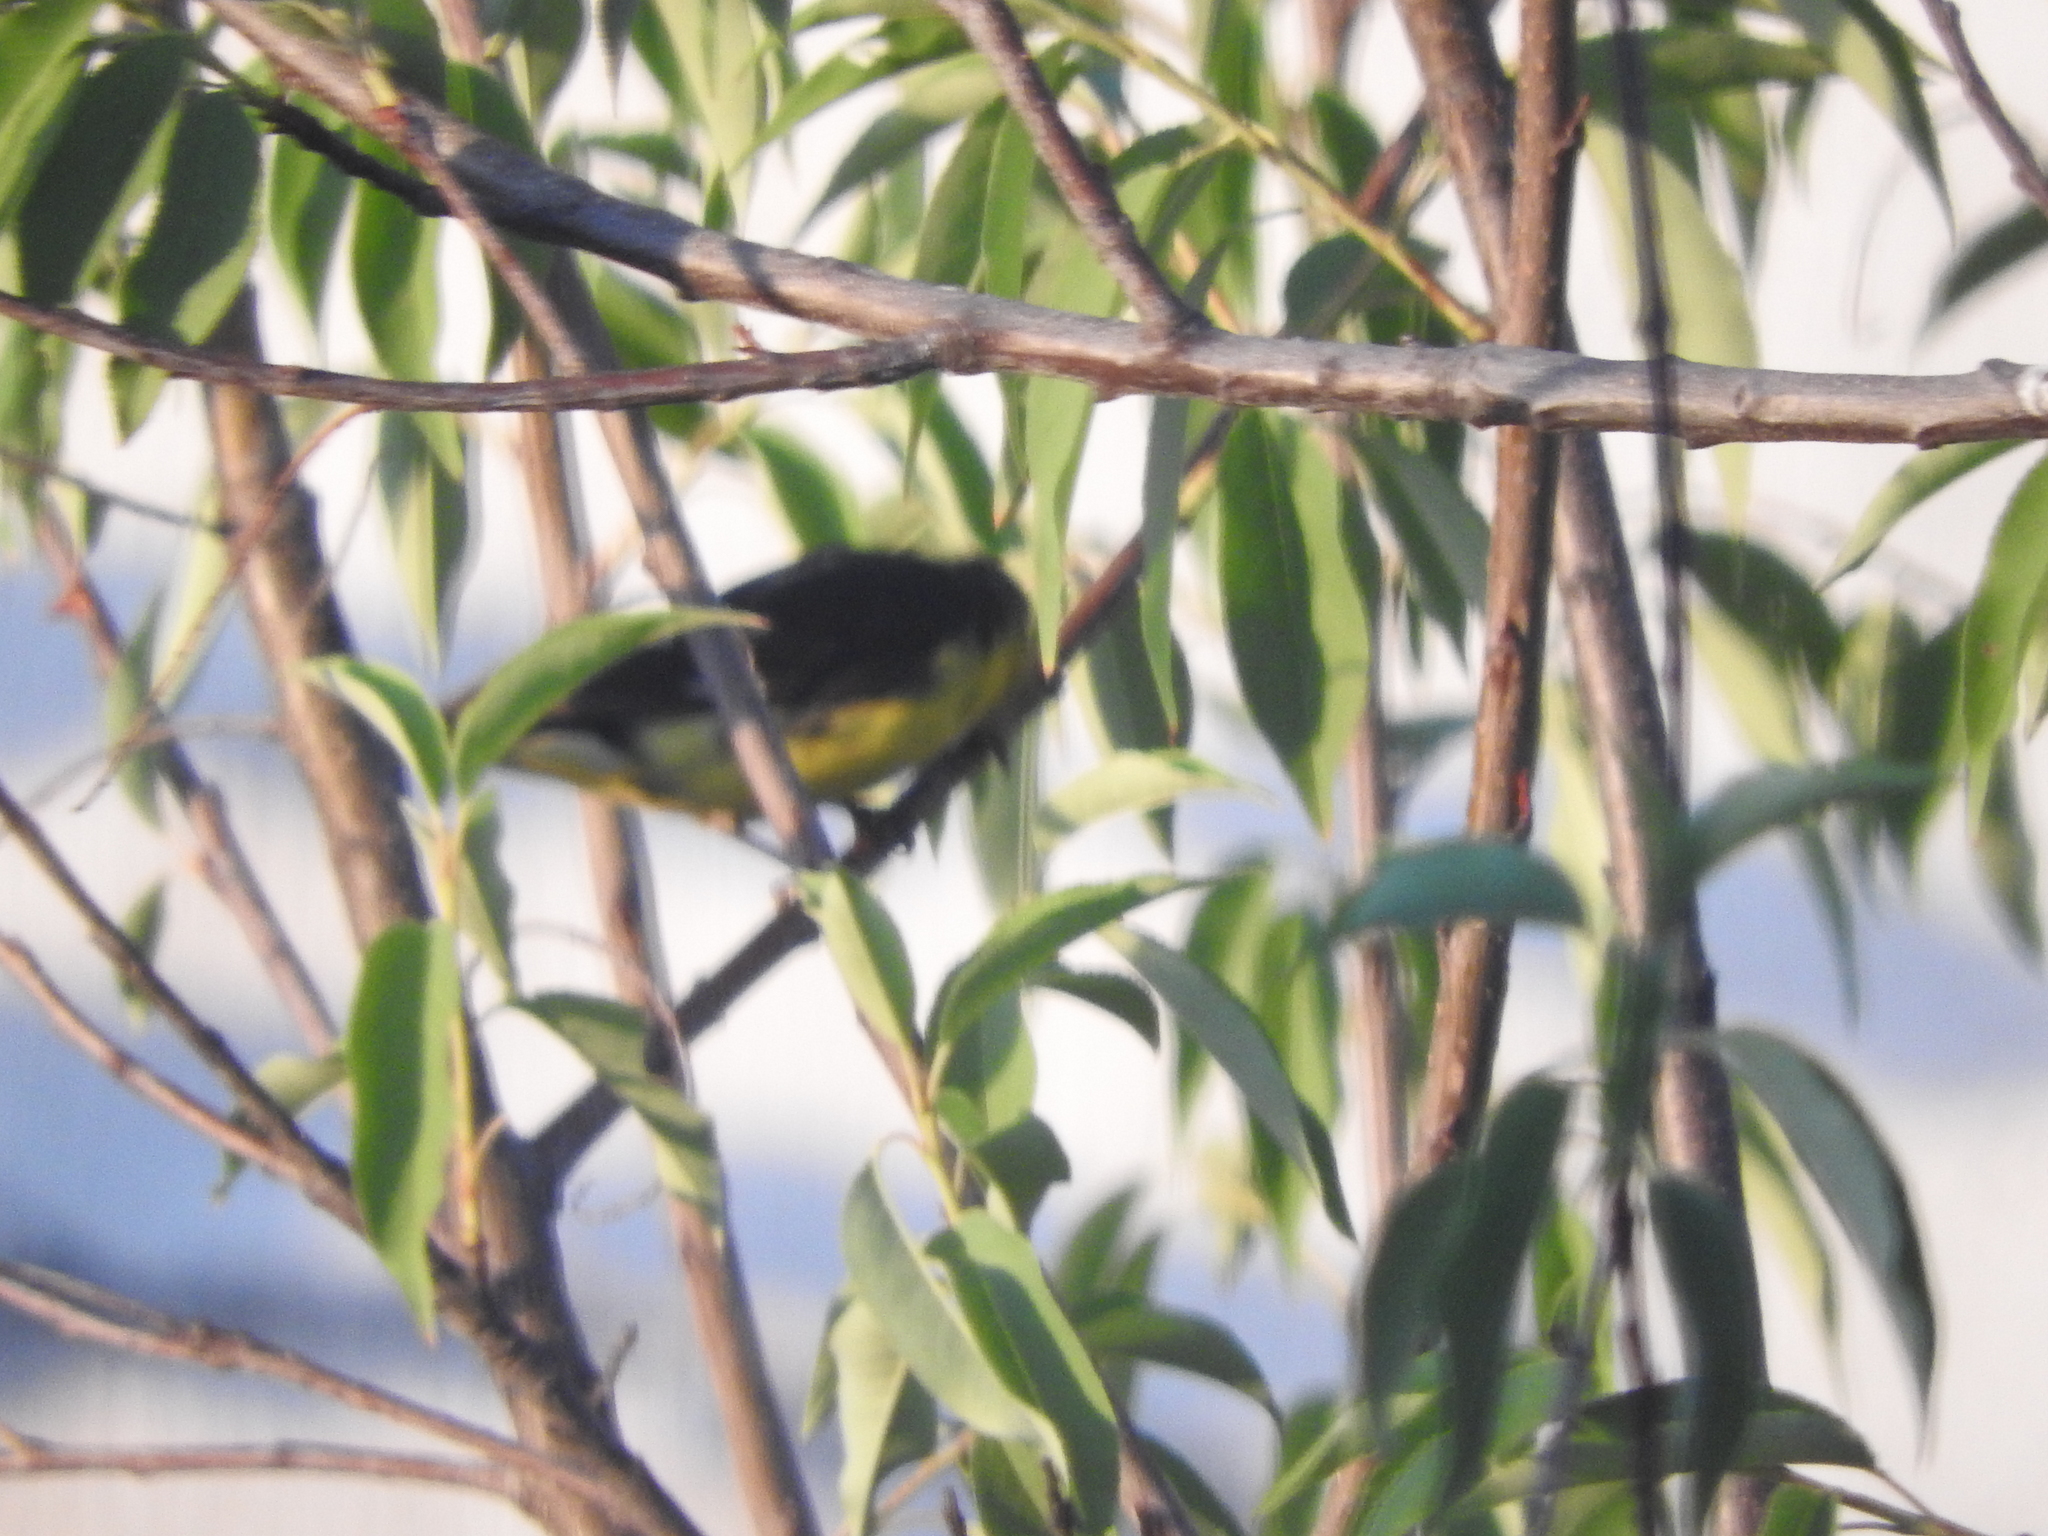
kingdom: Animalia
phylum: Chordata
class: Aves
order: Passeriformes
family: Fringillidae
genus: Spinus
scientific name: Spinus psaltria
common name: Lesser goldfinch
